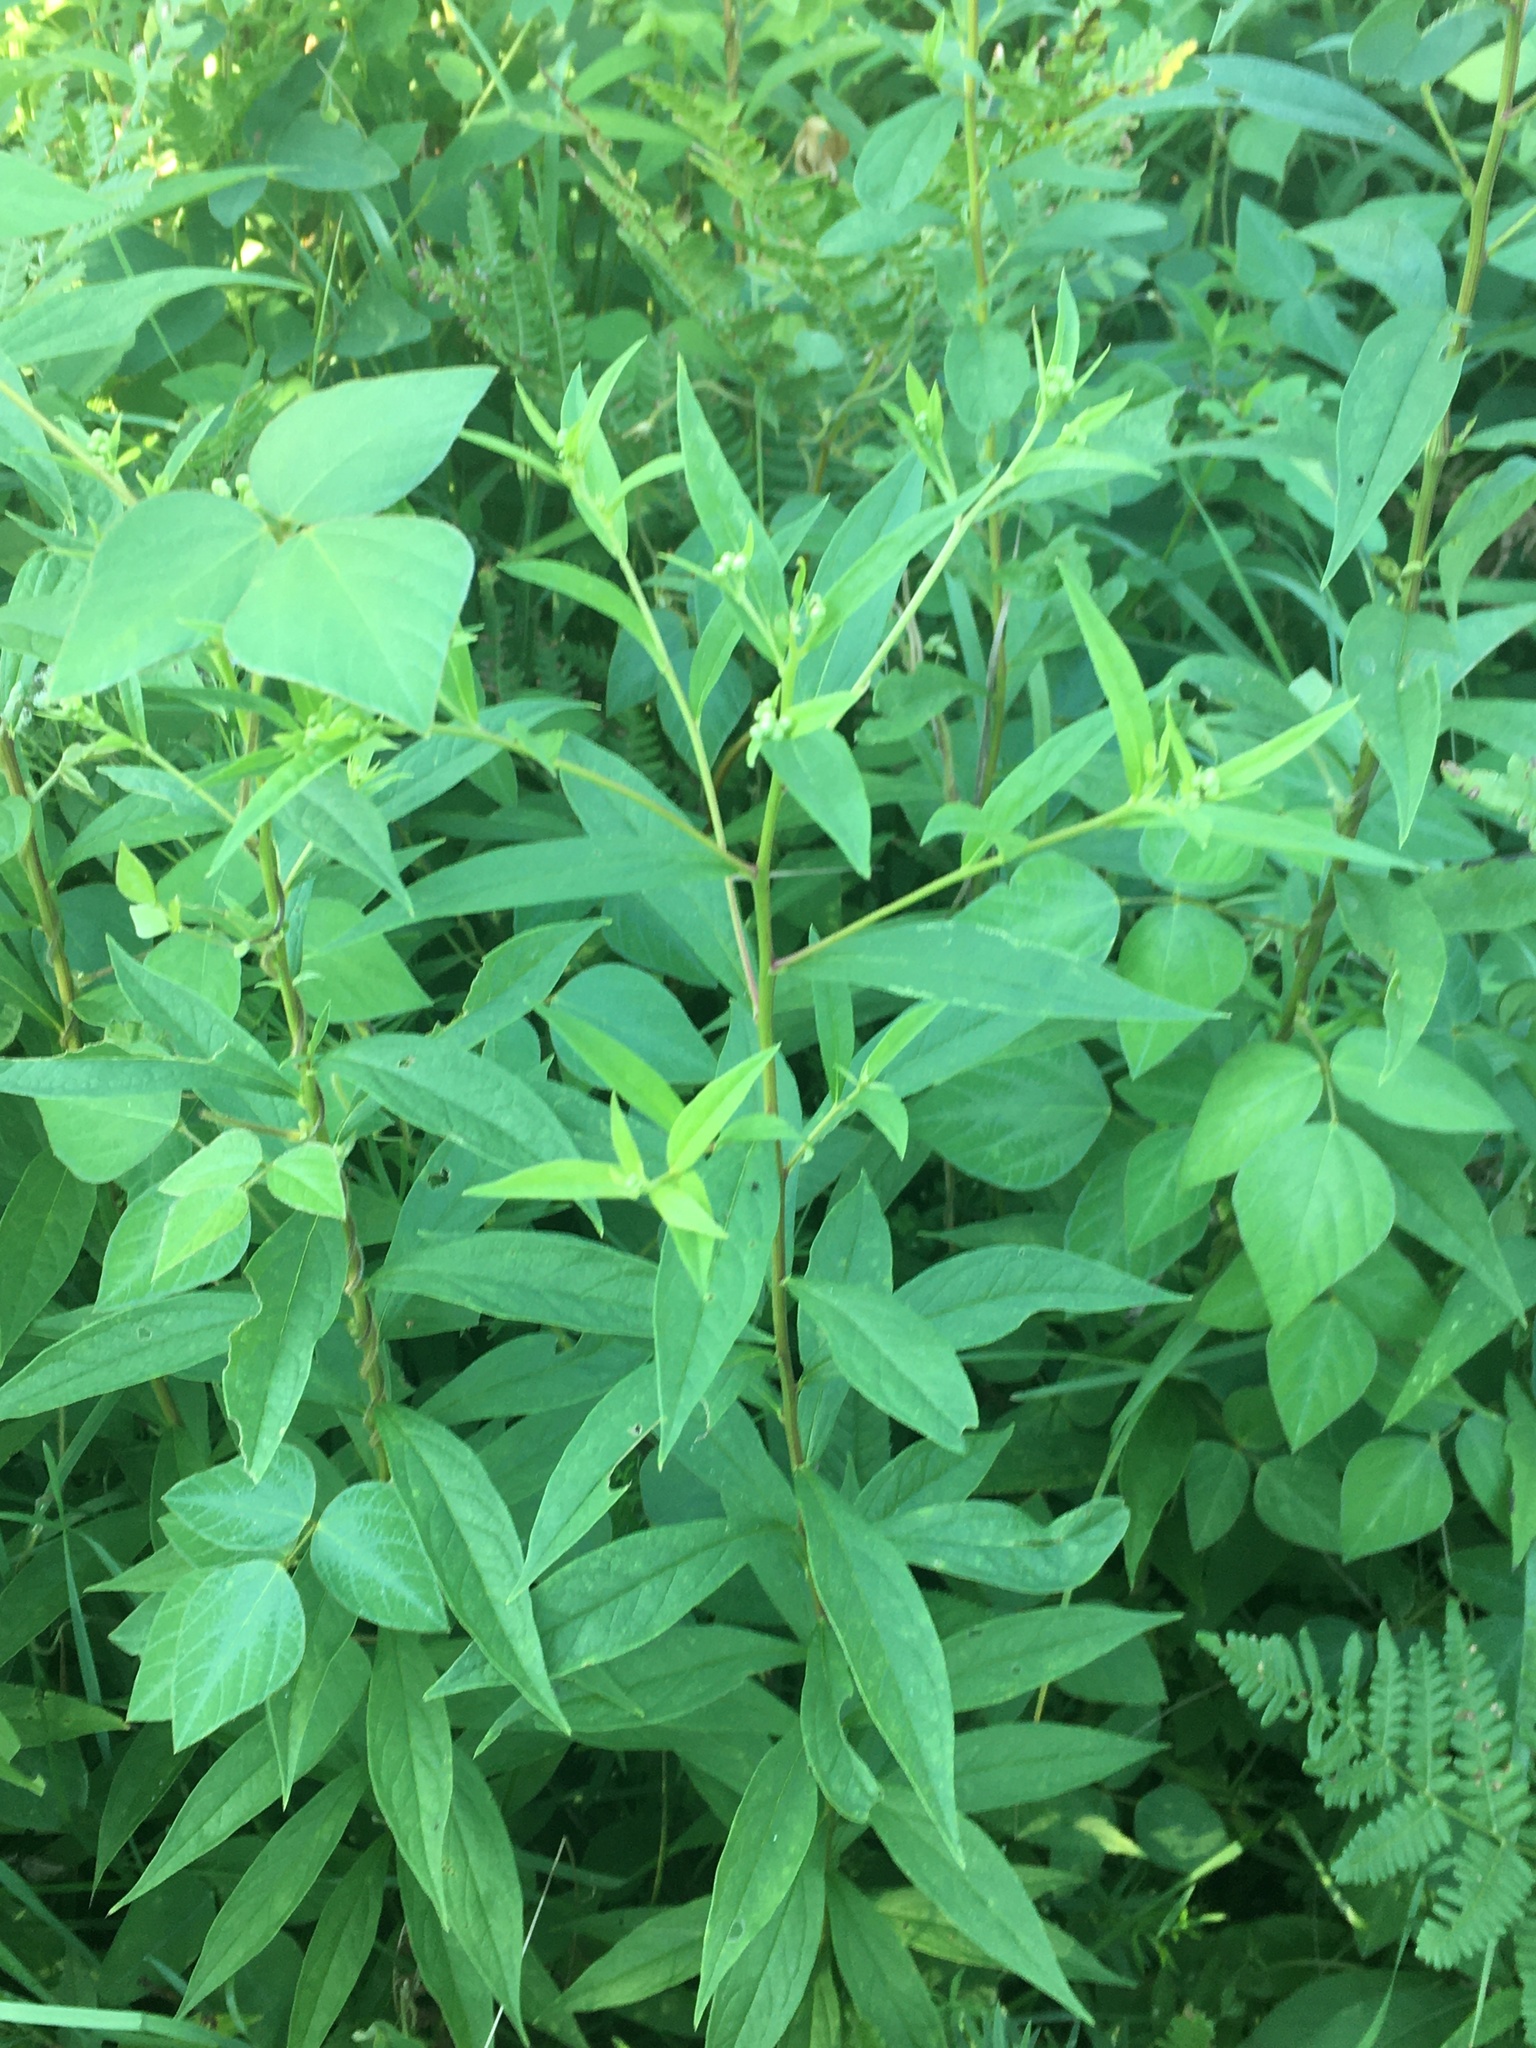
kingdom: Plantae
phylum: Tracheophyta
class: Magnoliopsida
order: Asterales
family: Asteraceae
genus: Doellingeria
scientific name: Doellingeria umbellata
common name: Flat-top white aster
